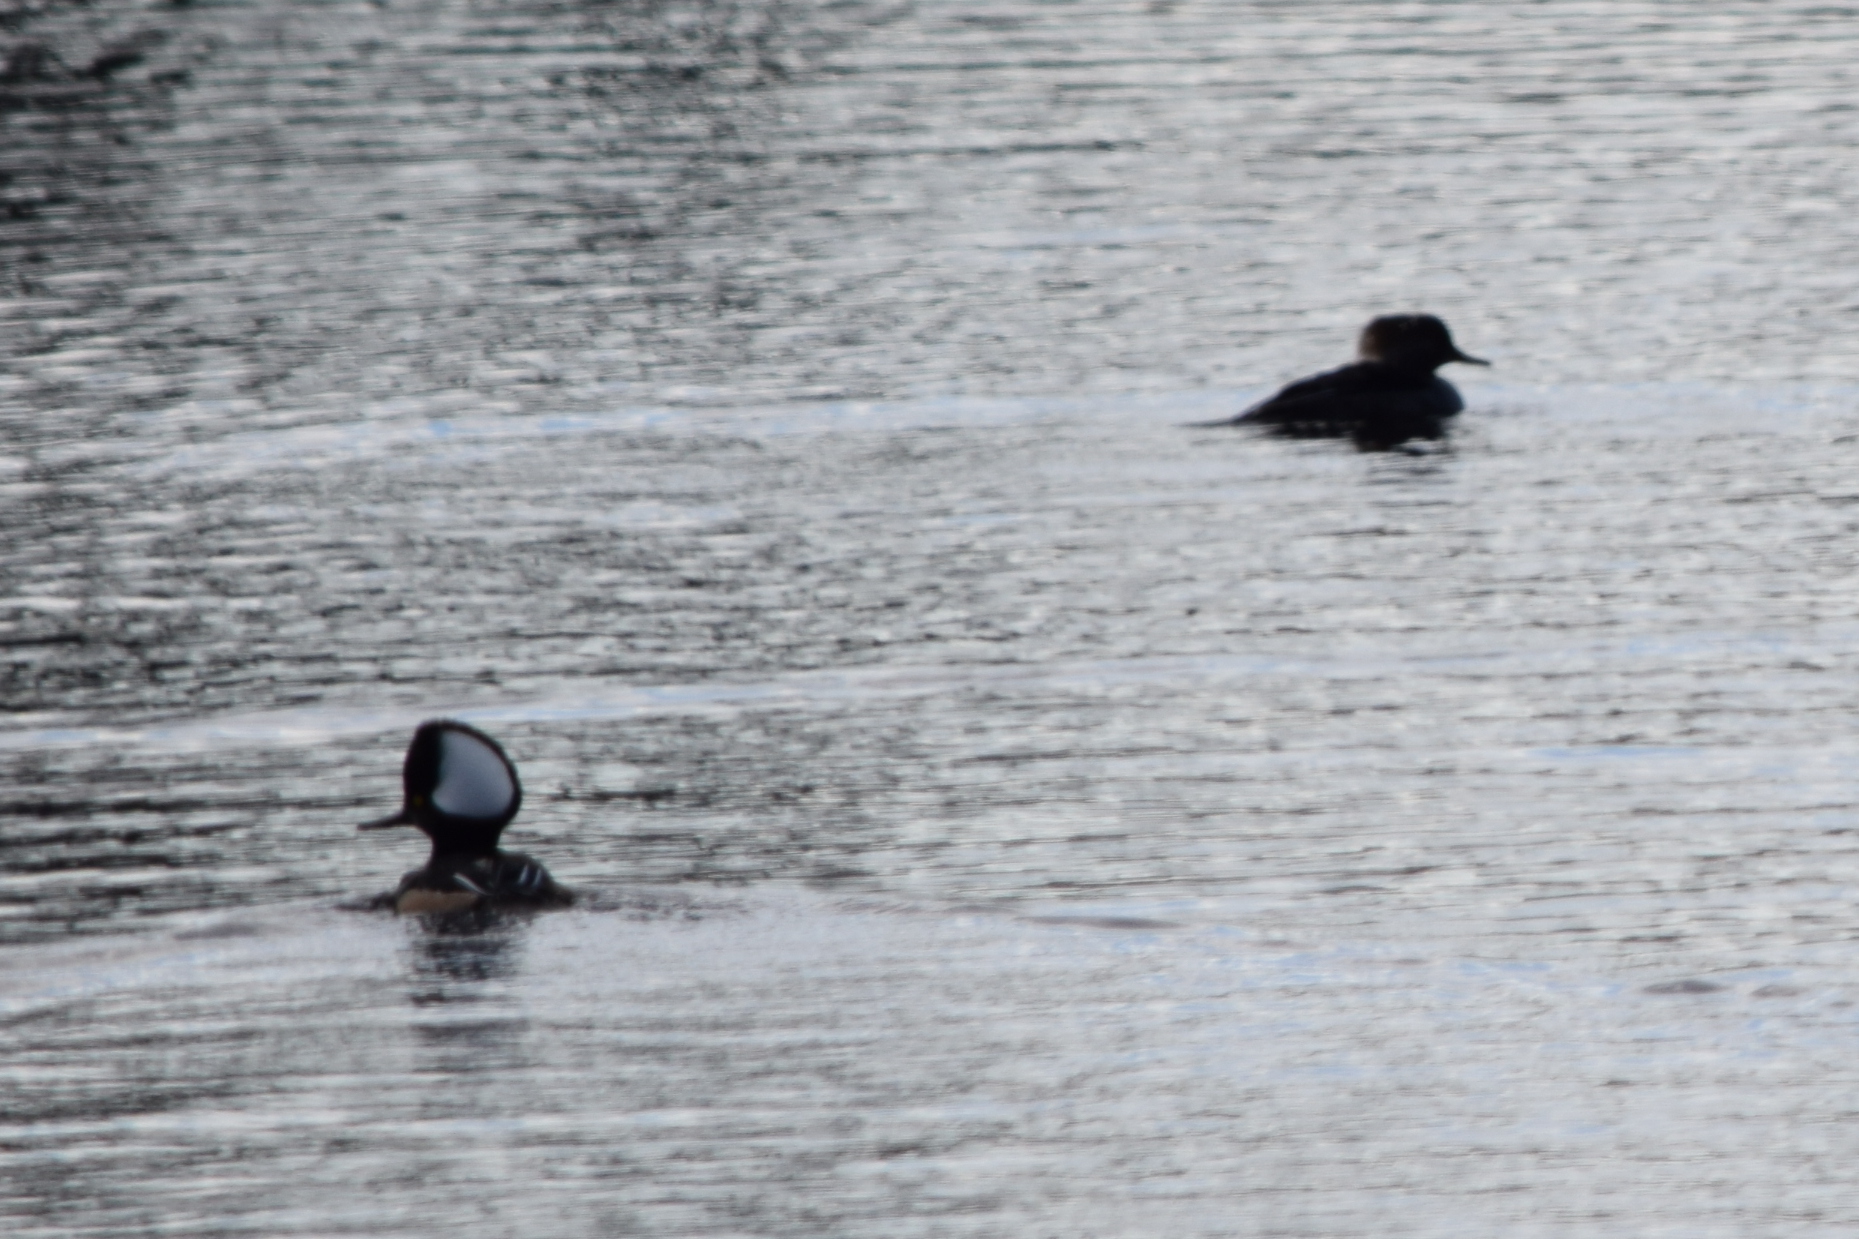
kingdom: Animalia
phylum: Chordata
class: Aves
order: Anseriformes
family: Anatidae
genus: Lophodytes
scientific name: Lophodytes cucullatus
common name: Hooded merganser
